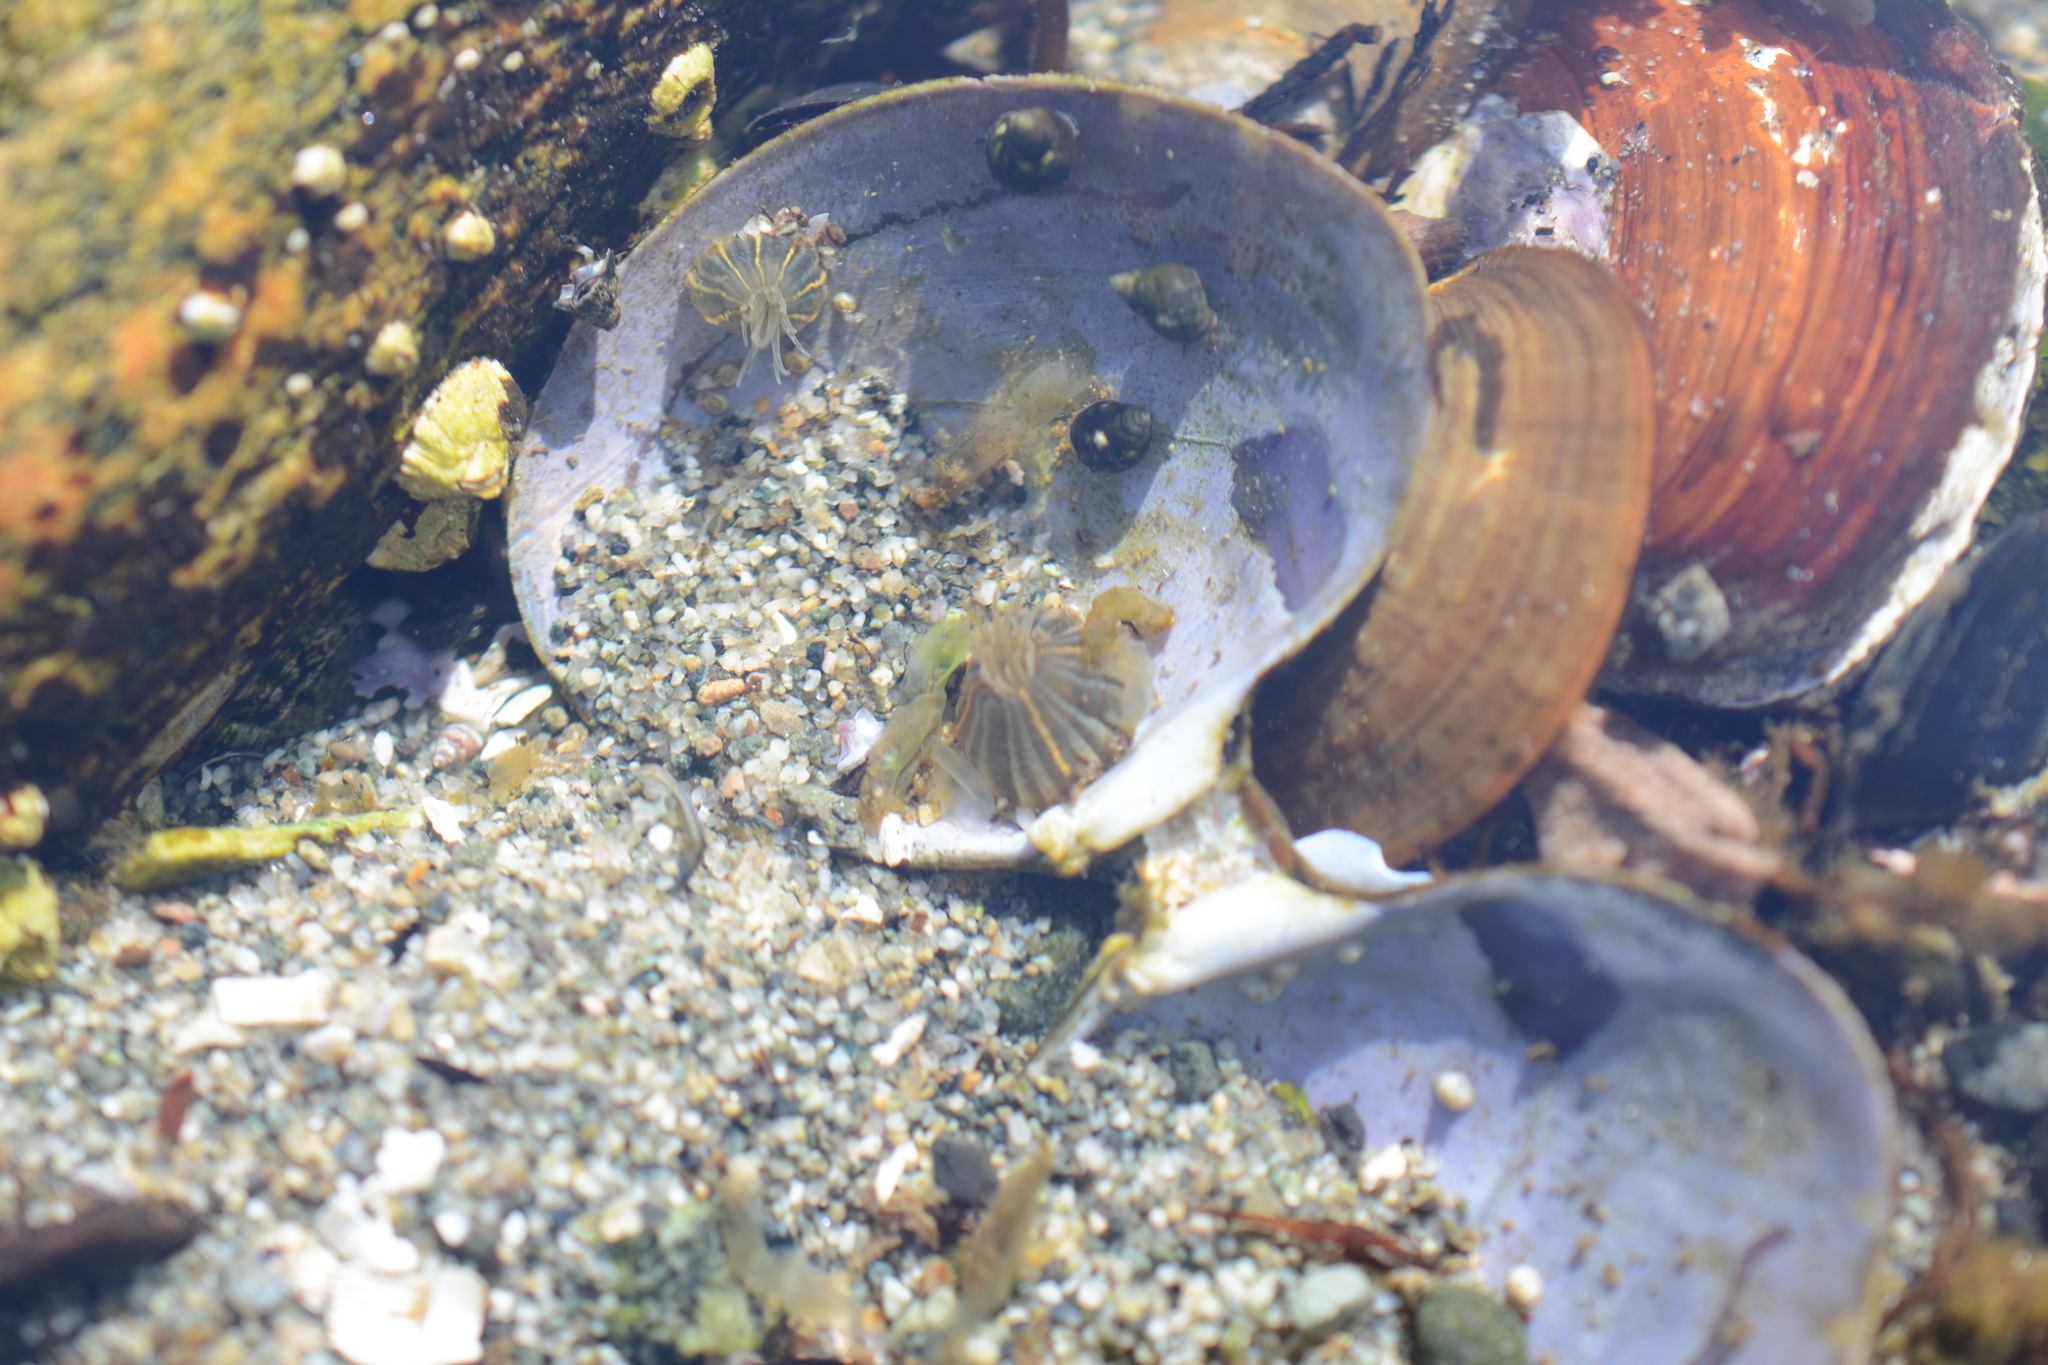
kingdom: Animalia
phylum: Cnidaria
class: Anthozoa
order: Actiniaria
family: Diadumenidae
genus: Diadumene
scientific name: Diadumene lineata
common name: Orange-striped anemone
